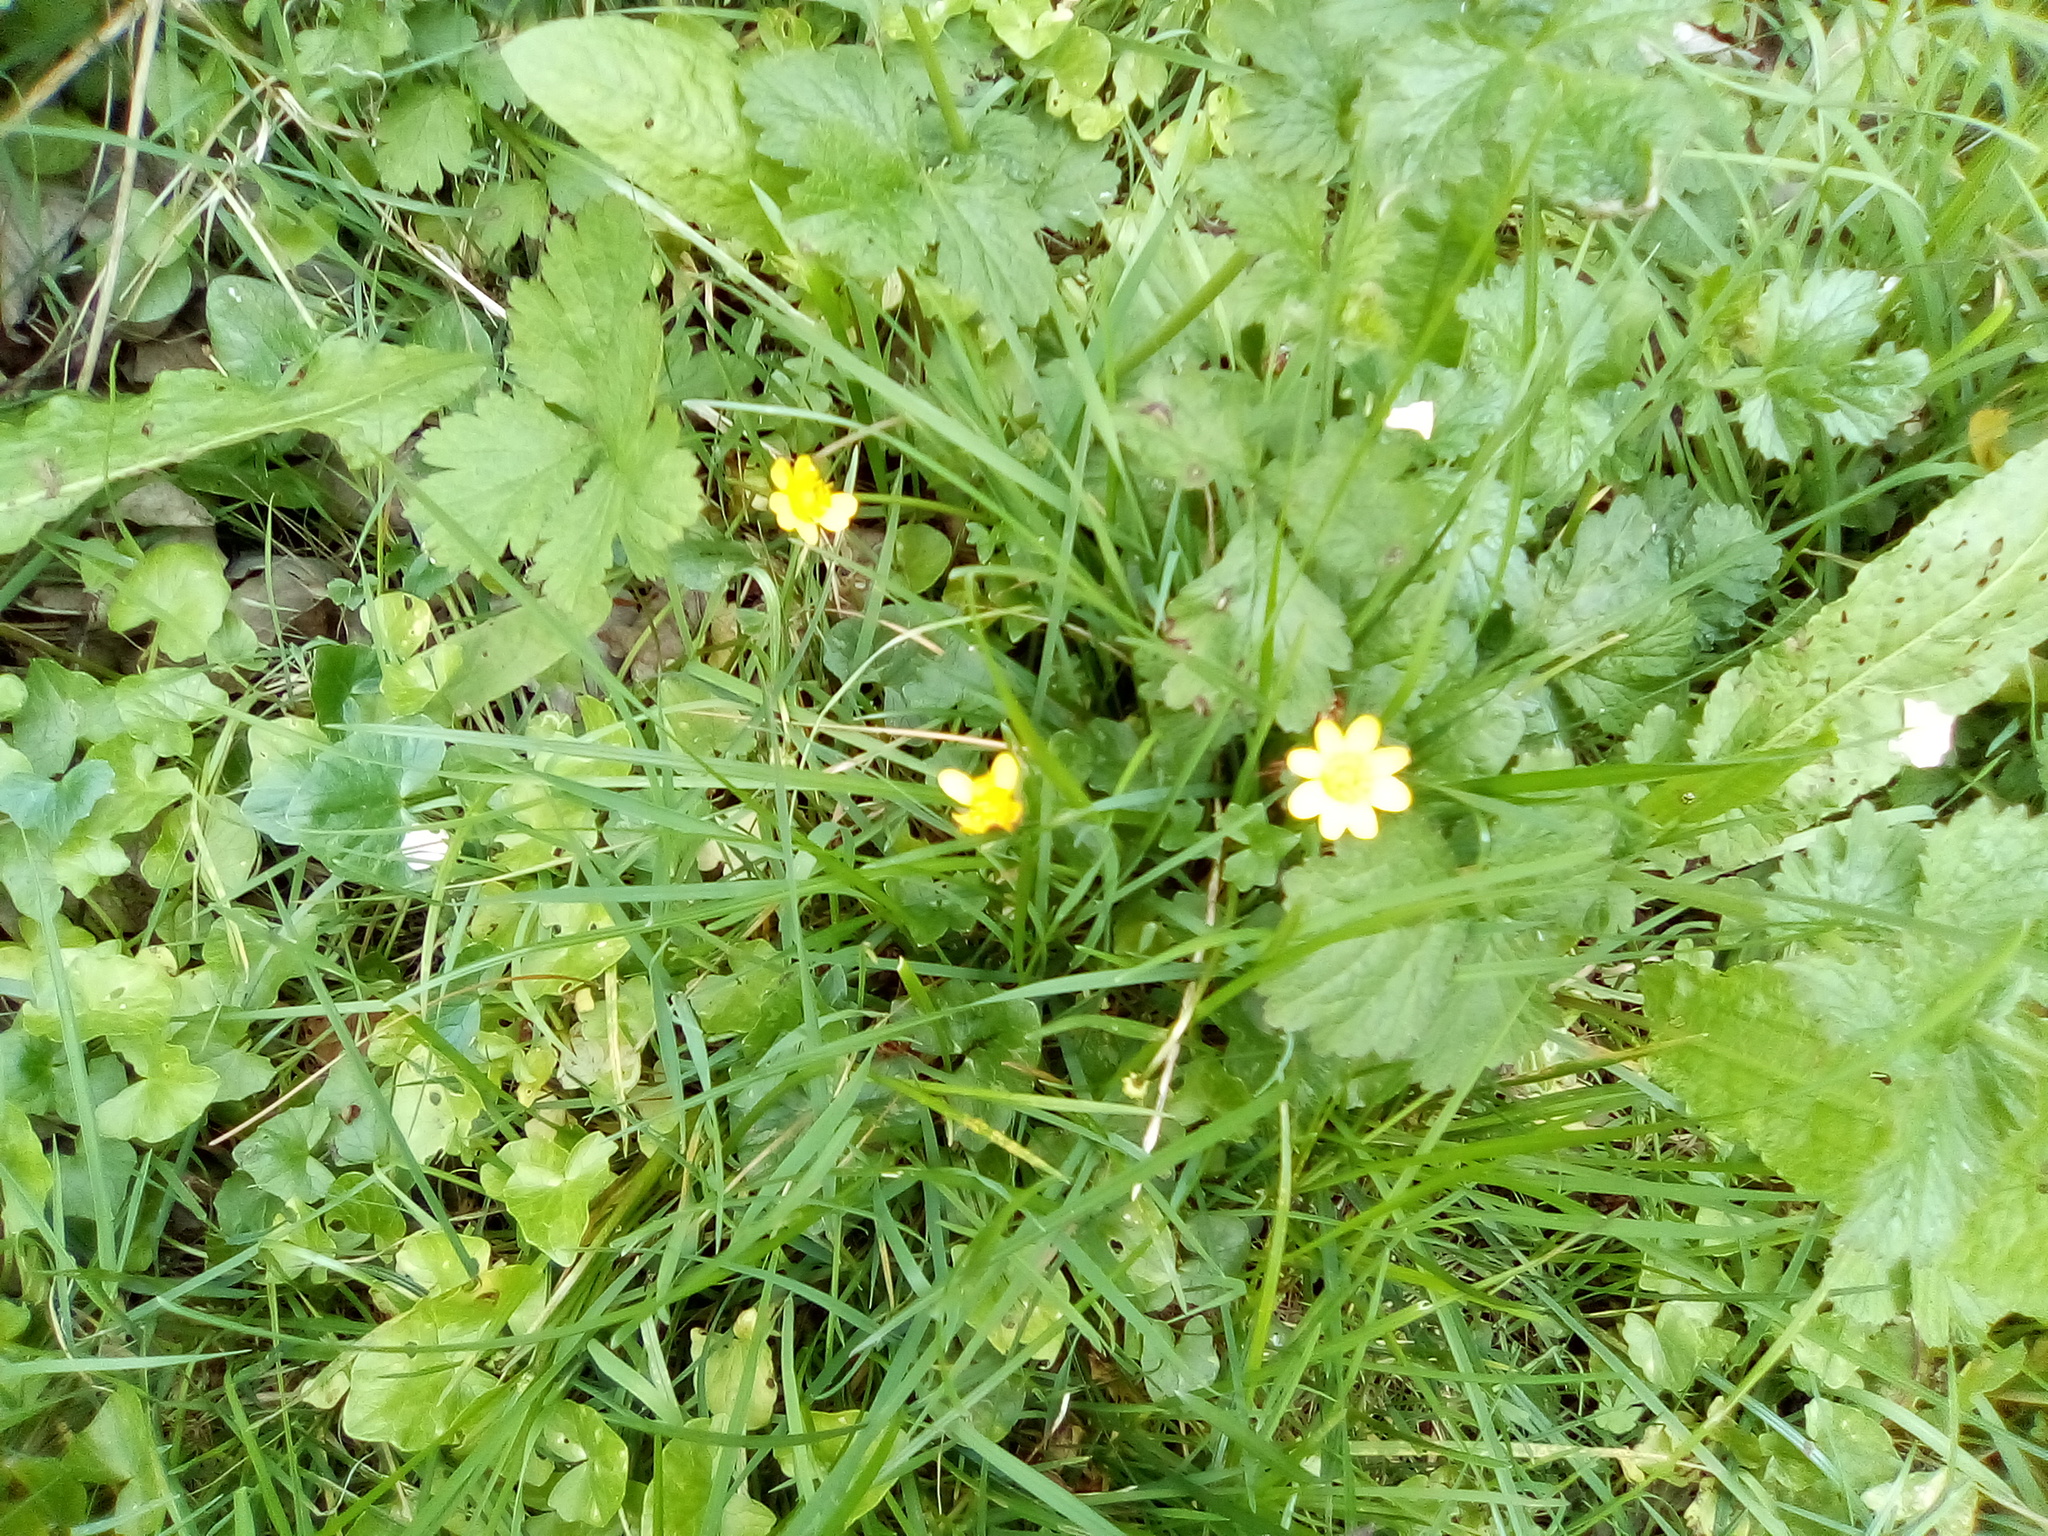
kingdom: Plantae
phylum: Tracheophyta
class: Magnoliopsida
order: Ranunculales
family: Ranunculaceae
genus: Ficaria
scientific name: Ficaria verna
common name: Lesser celandine
